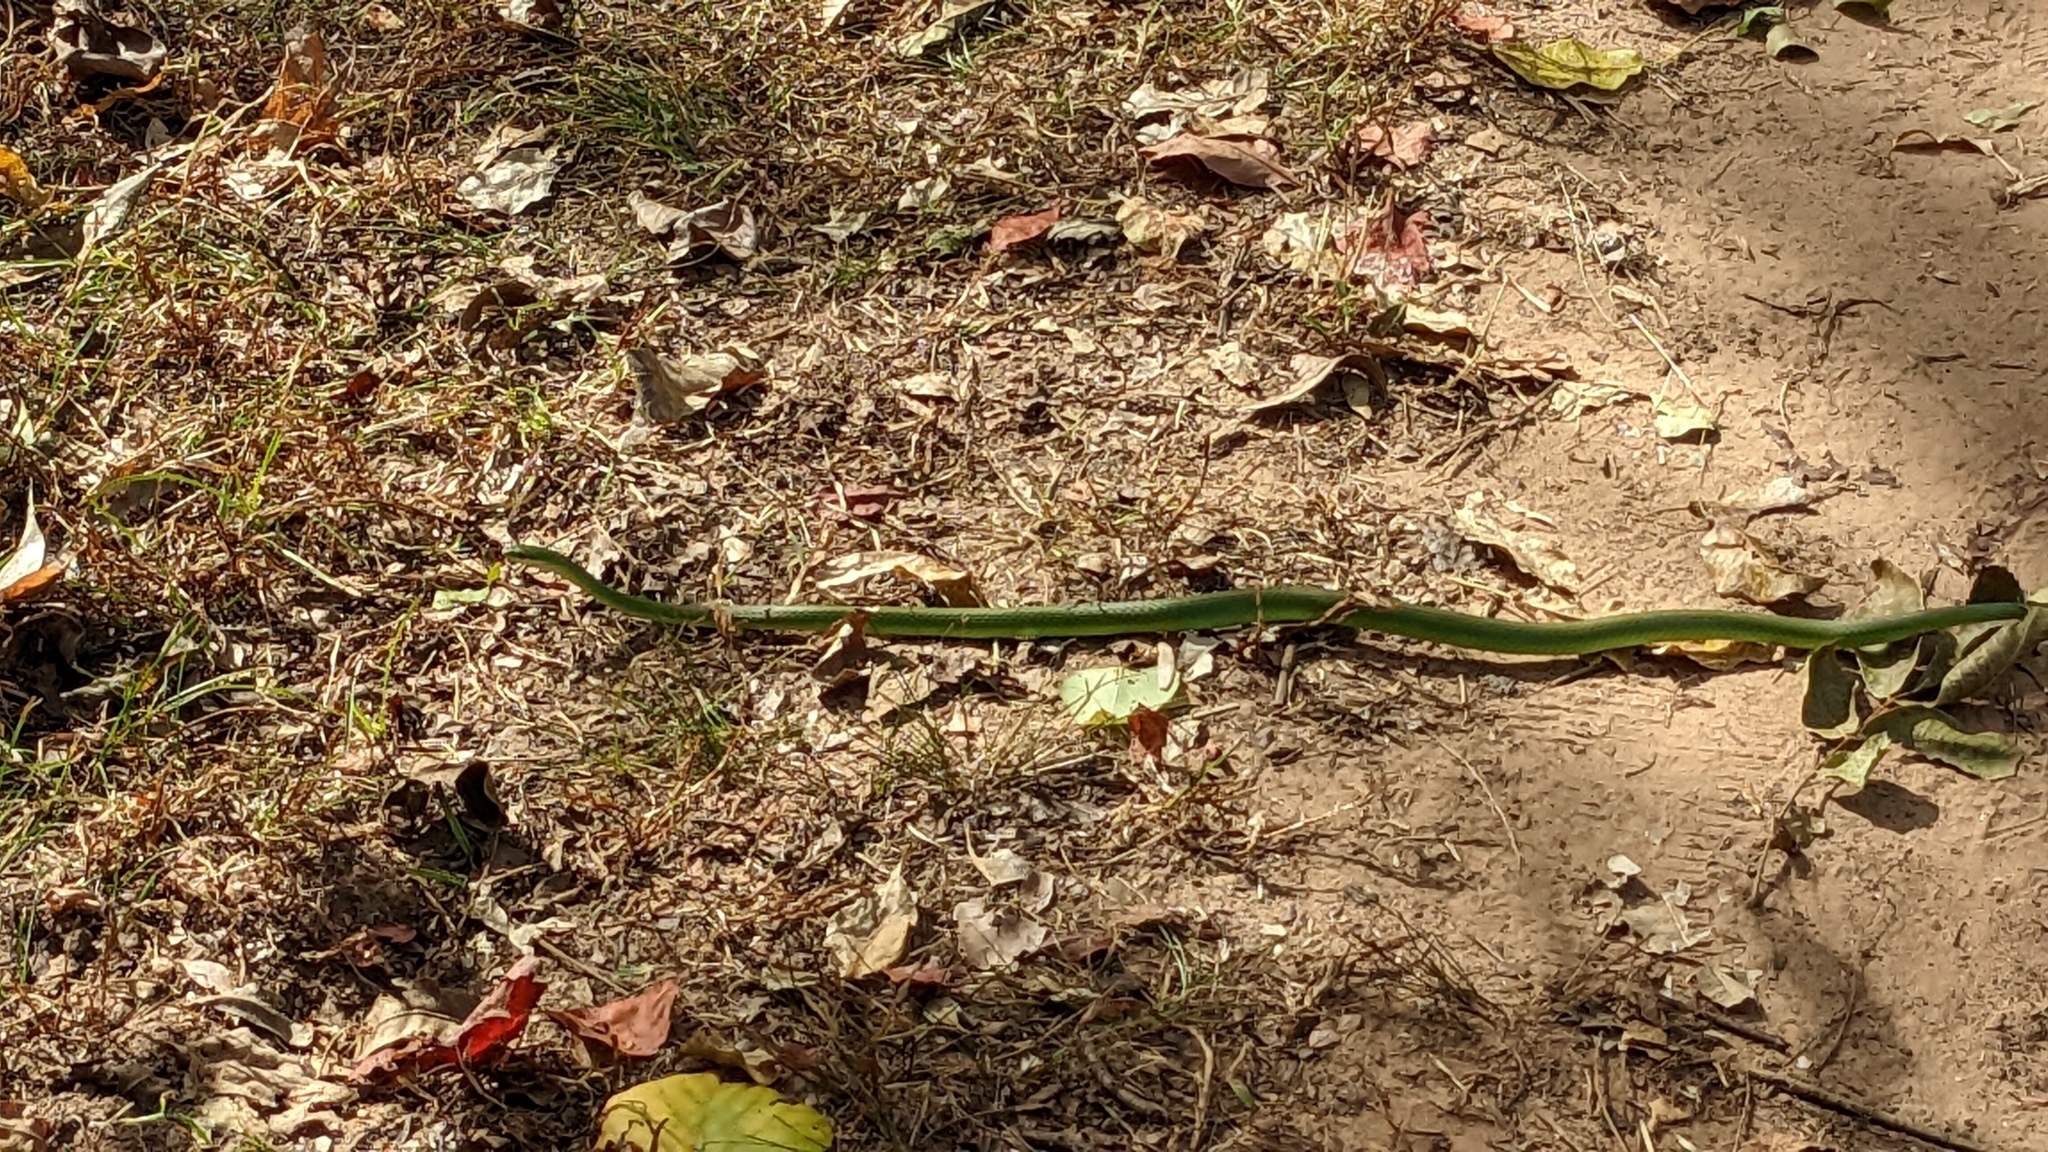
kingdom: Animalia
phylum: Chordata
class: Squamata
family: Colubridae
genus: Opheodrys
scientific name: Opheodrys aestivus
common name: Rough greensnake
